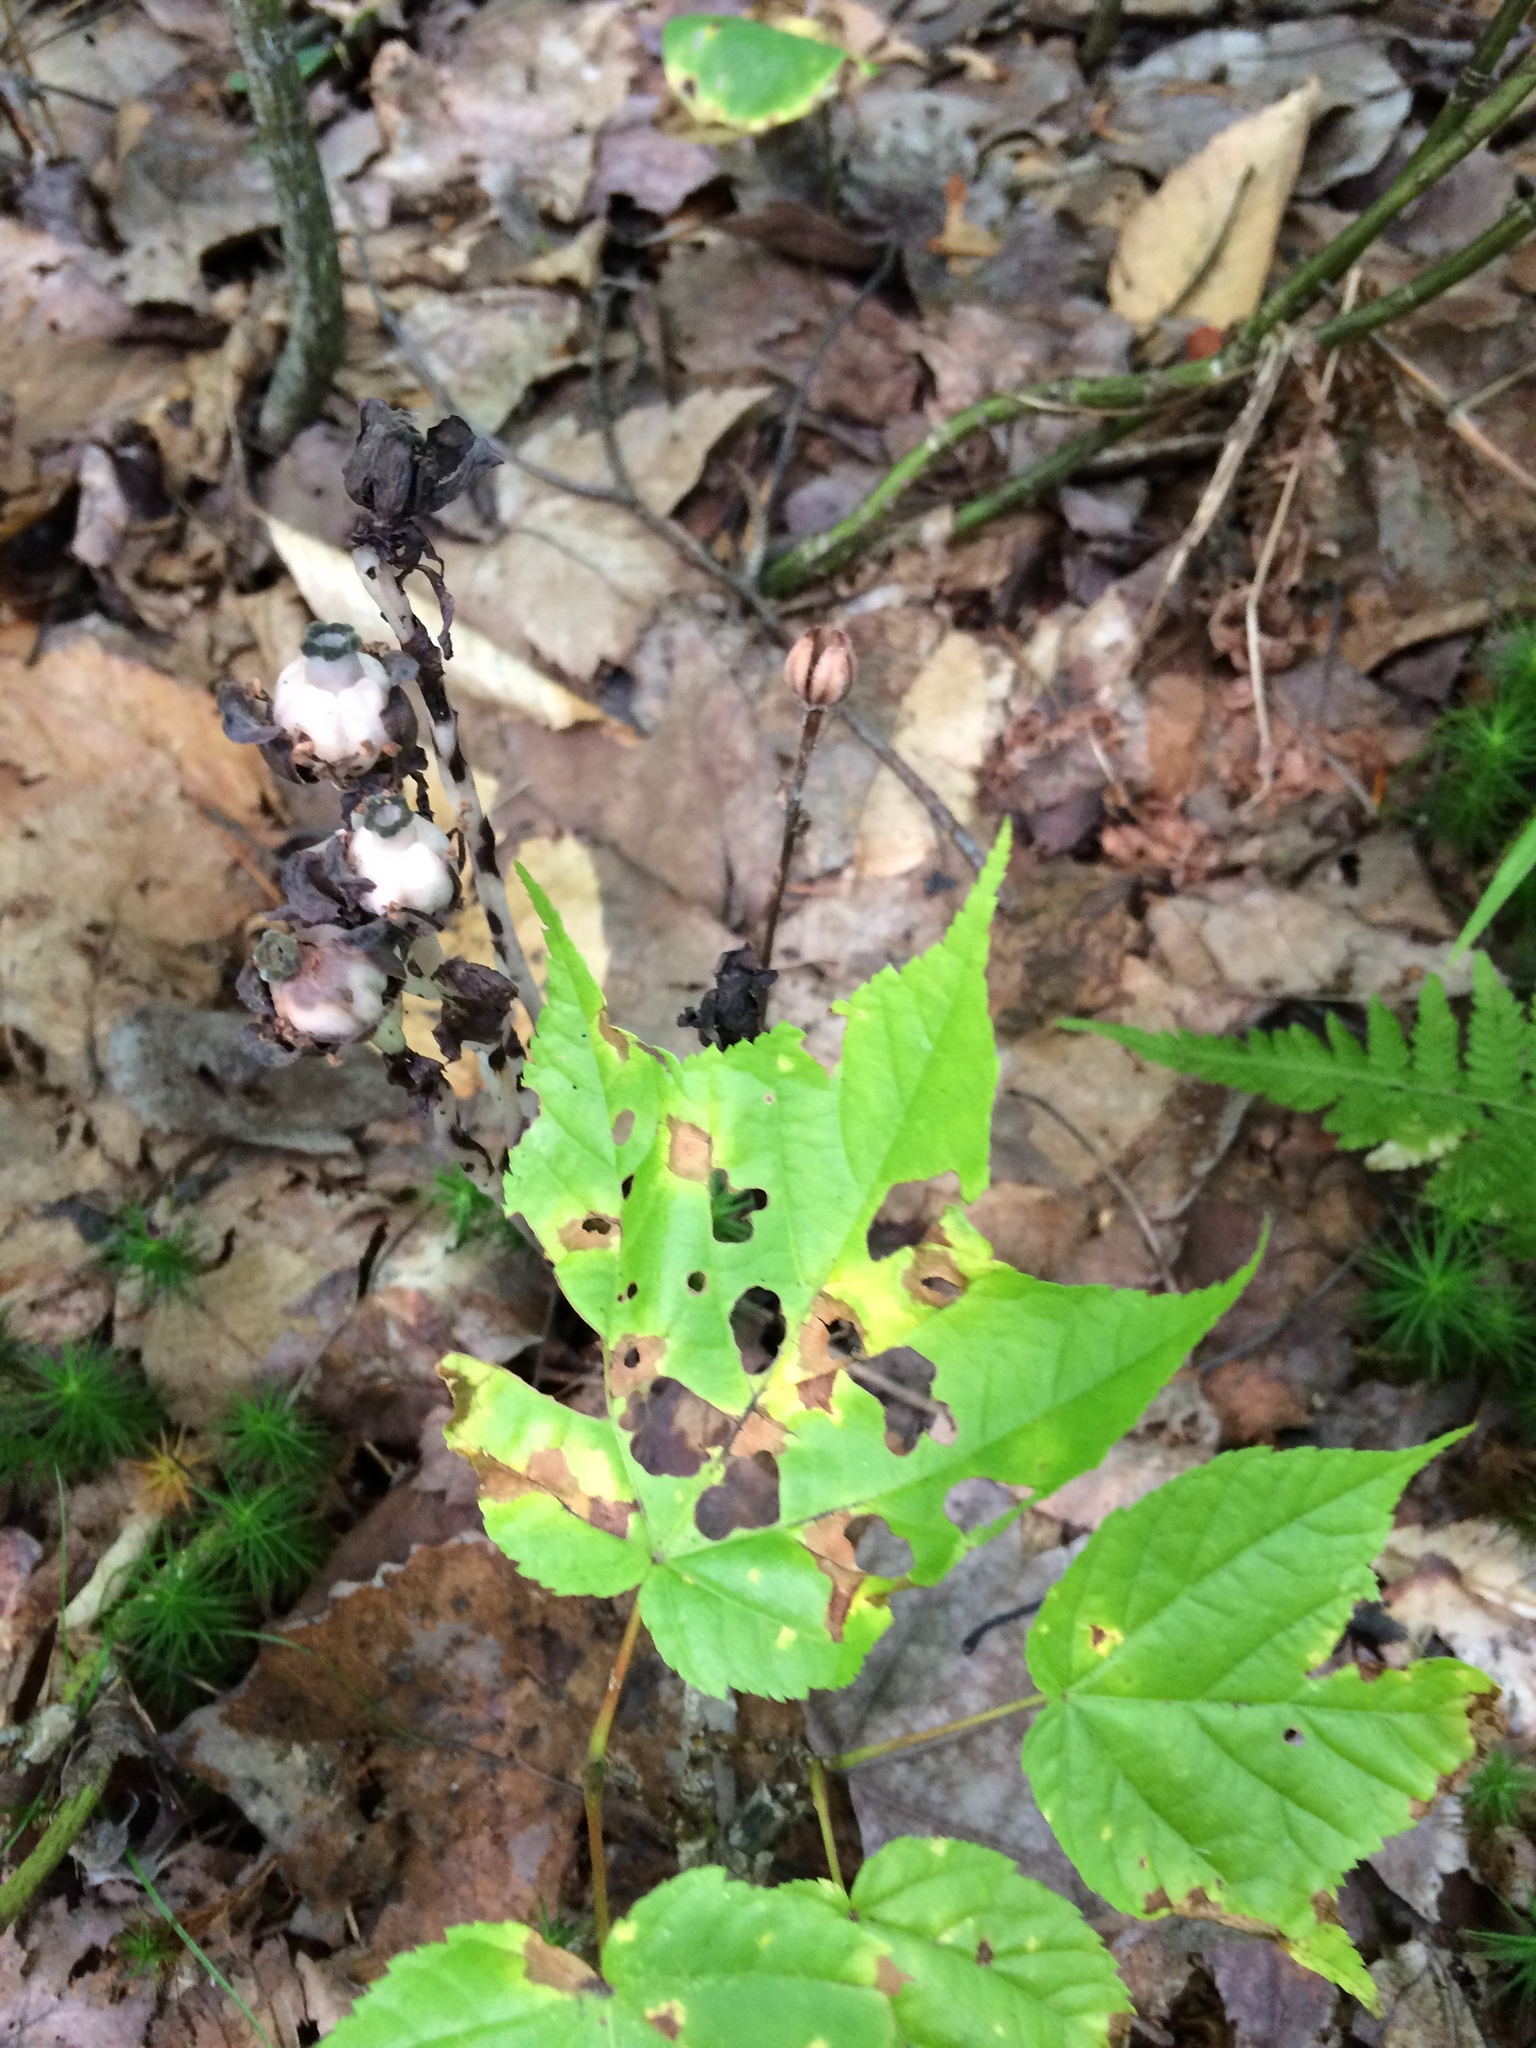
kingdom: Plantae
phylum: Tracheophyta
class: Magnoliopsida
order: Ericales
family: Ericaceae
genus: Monotropa
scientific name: Monotropa uniflora
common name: Convulsion root
